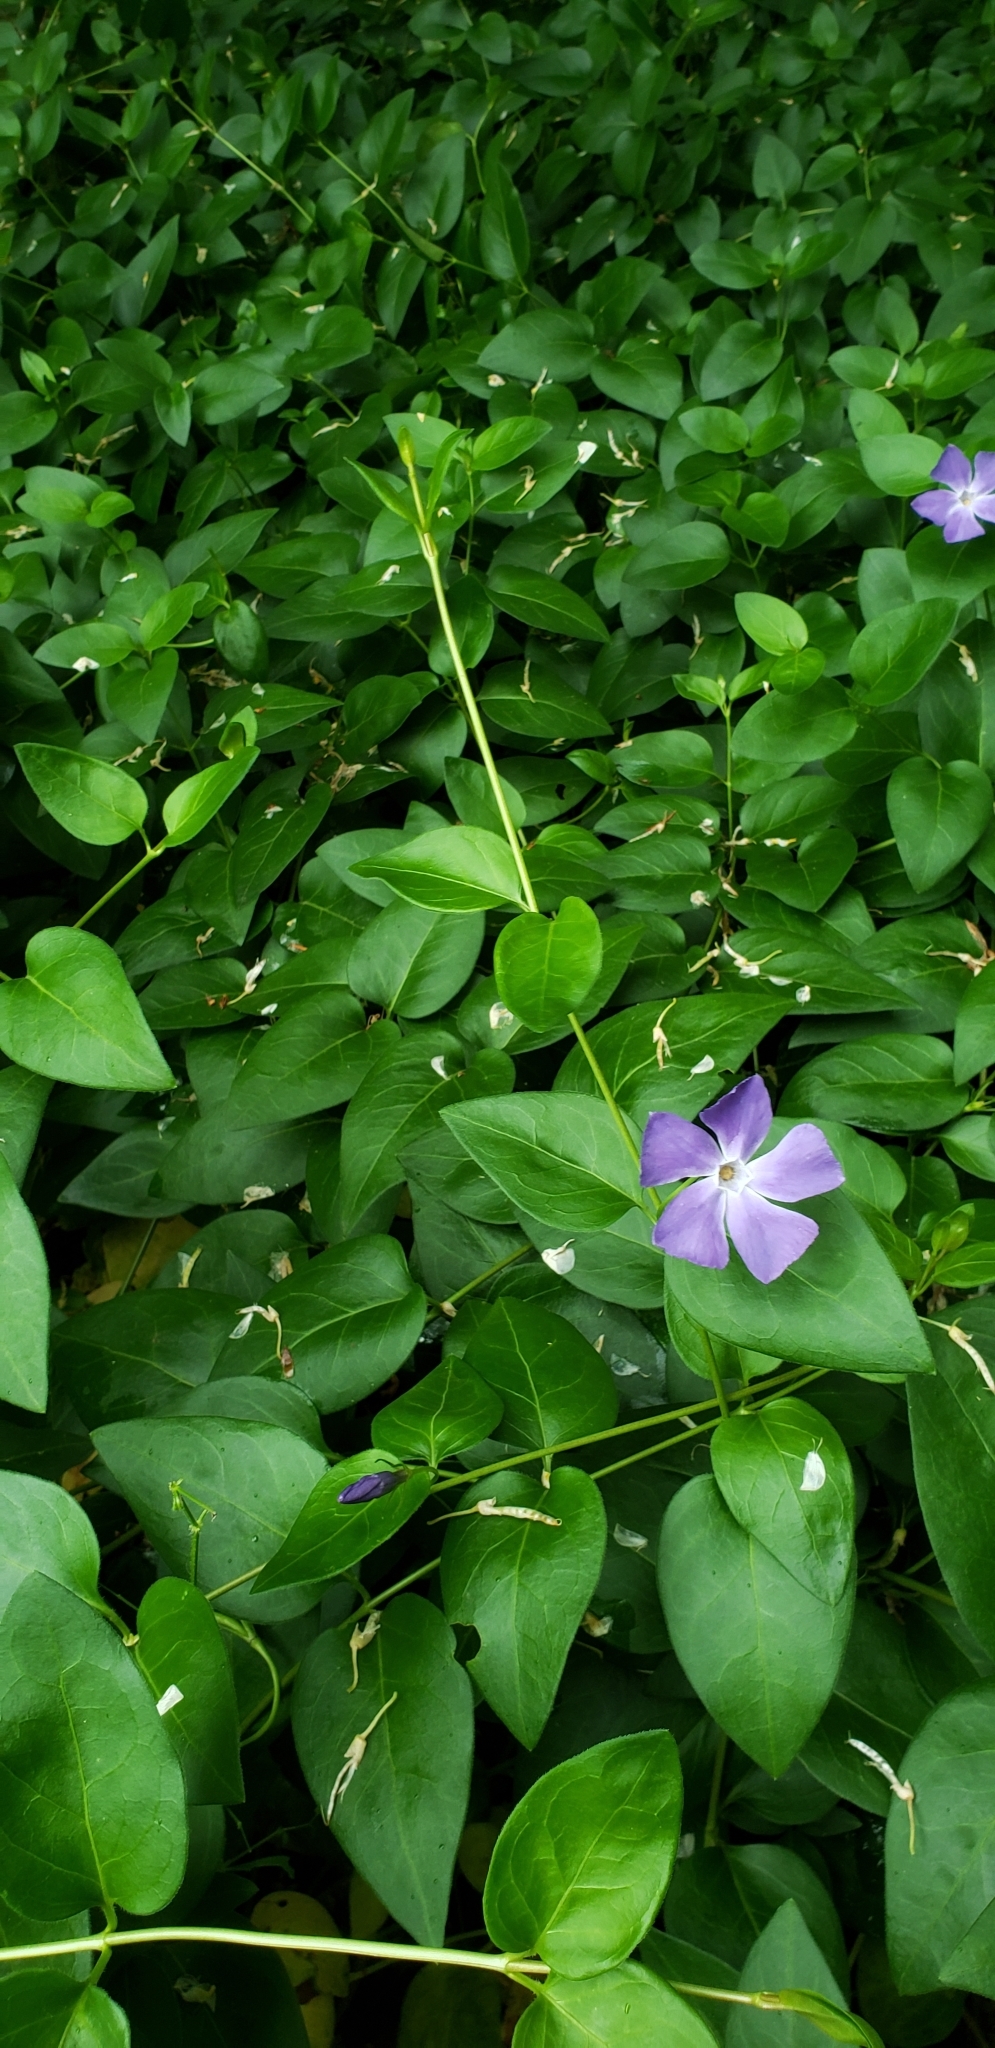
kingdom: Plantae
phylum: Tracheophyta
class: Magnoliopsida
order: Gentianales
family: Apocynaceae
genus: Vinca
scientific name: Vinca major
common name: Greater periwinkle
